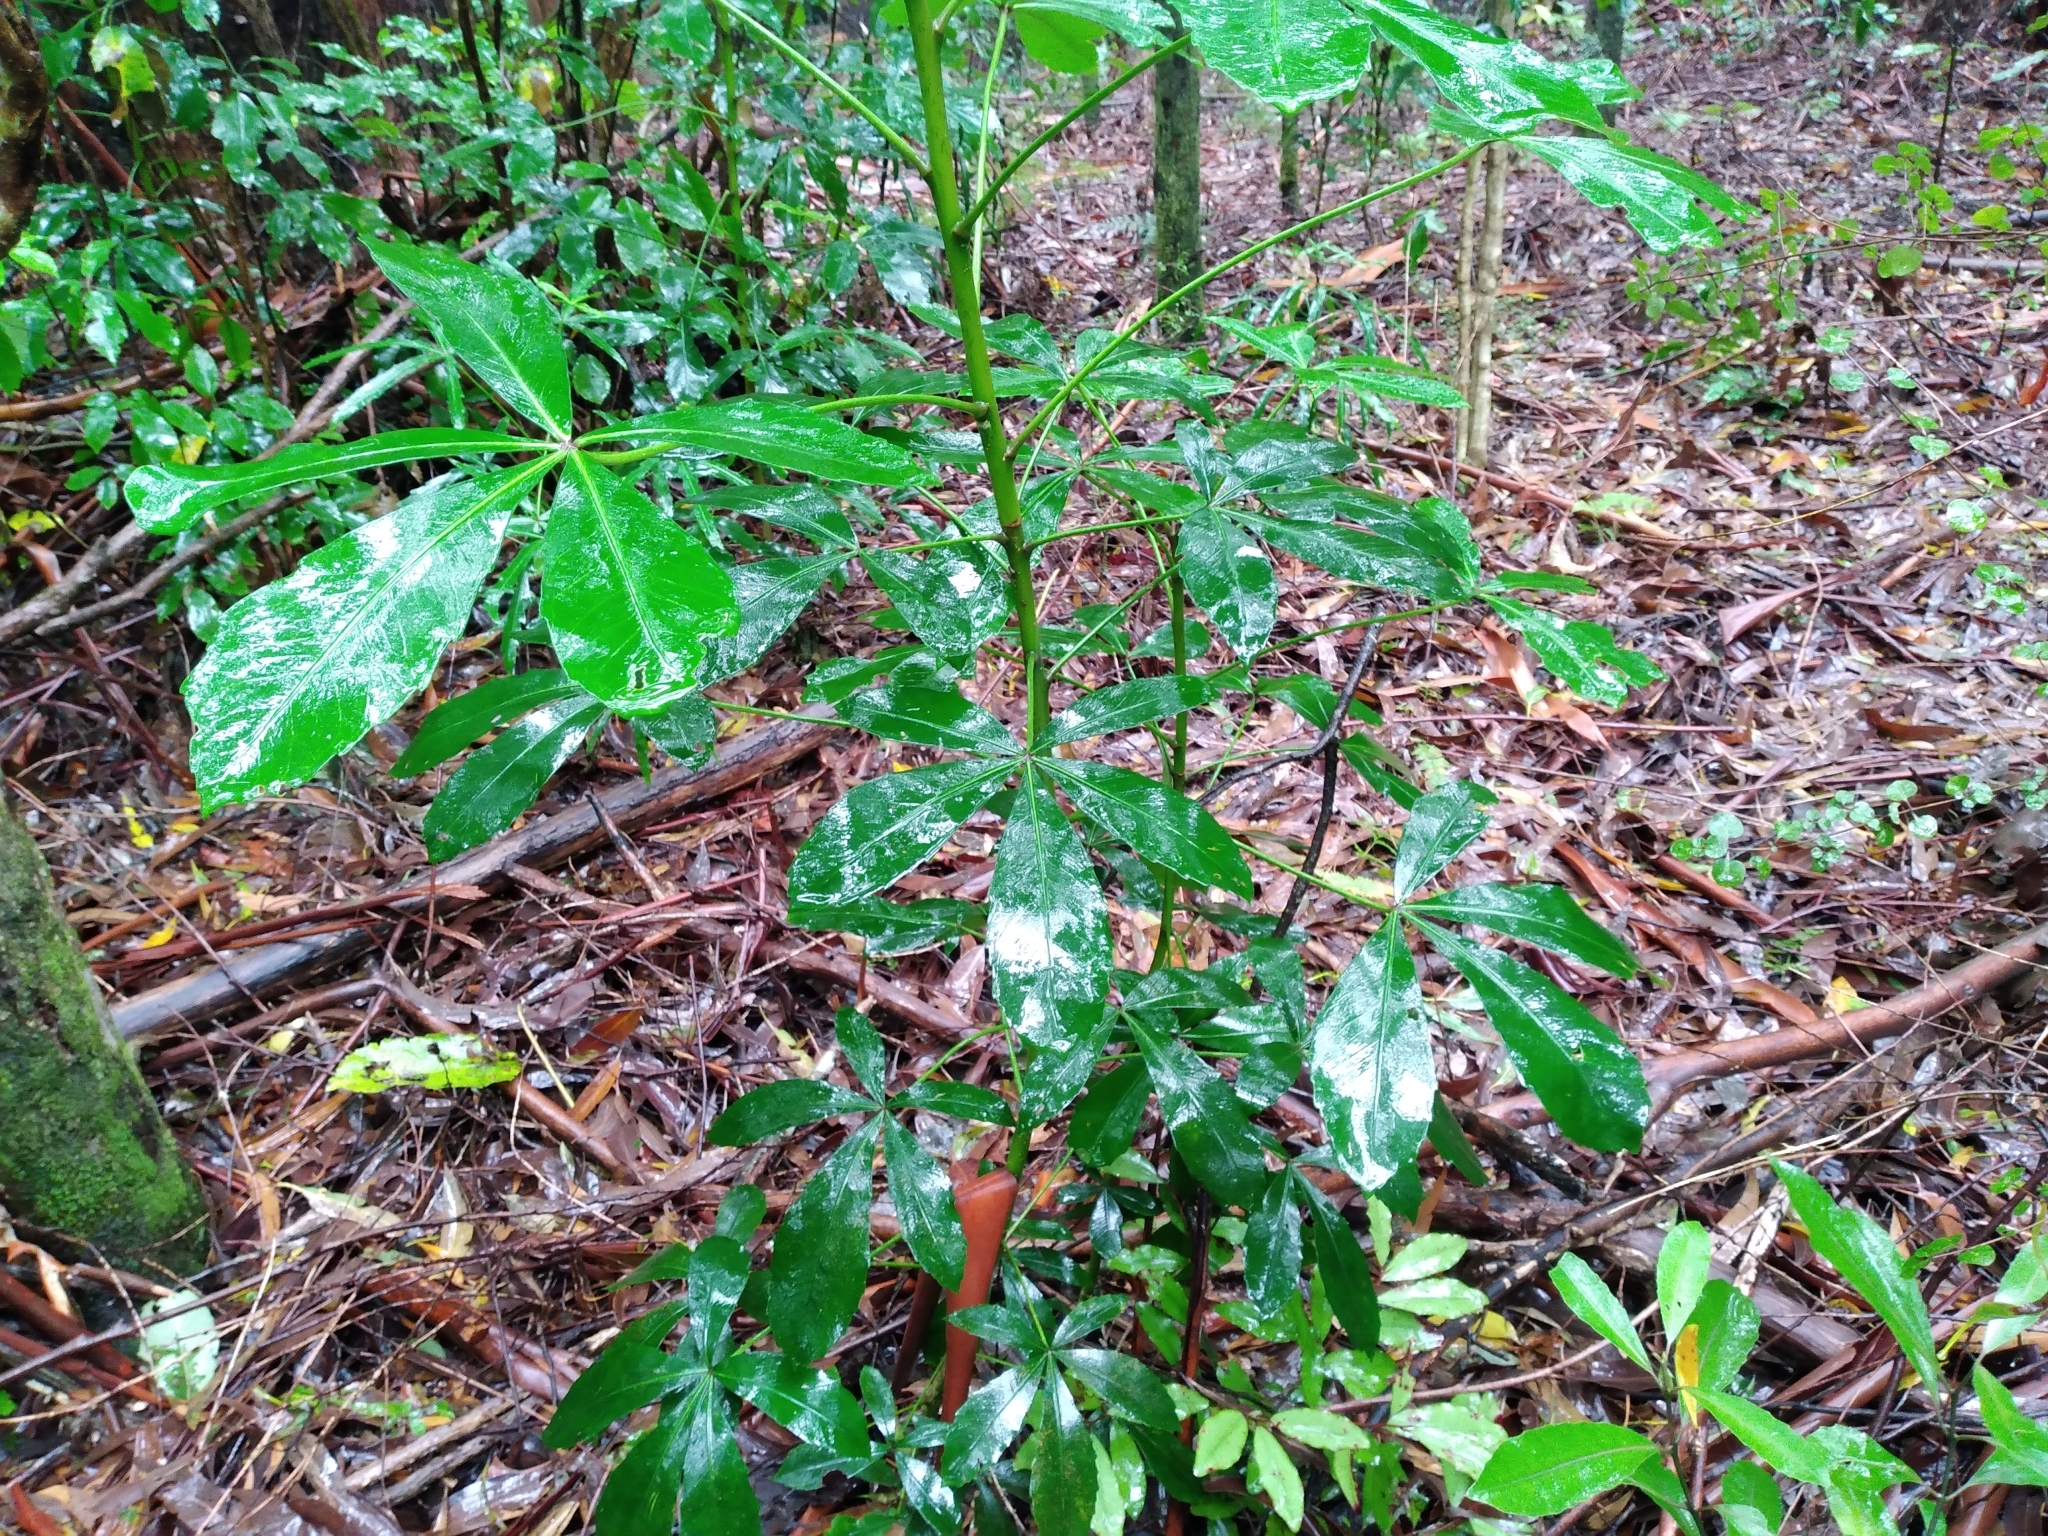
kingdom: Plantae
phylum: Tracheophyta
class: Magnoliopsida
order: Apiales
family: Araliaceae
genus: Pseudopanax
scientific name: Pseudopanax lessonii
